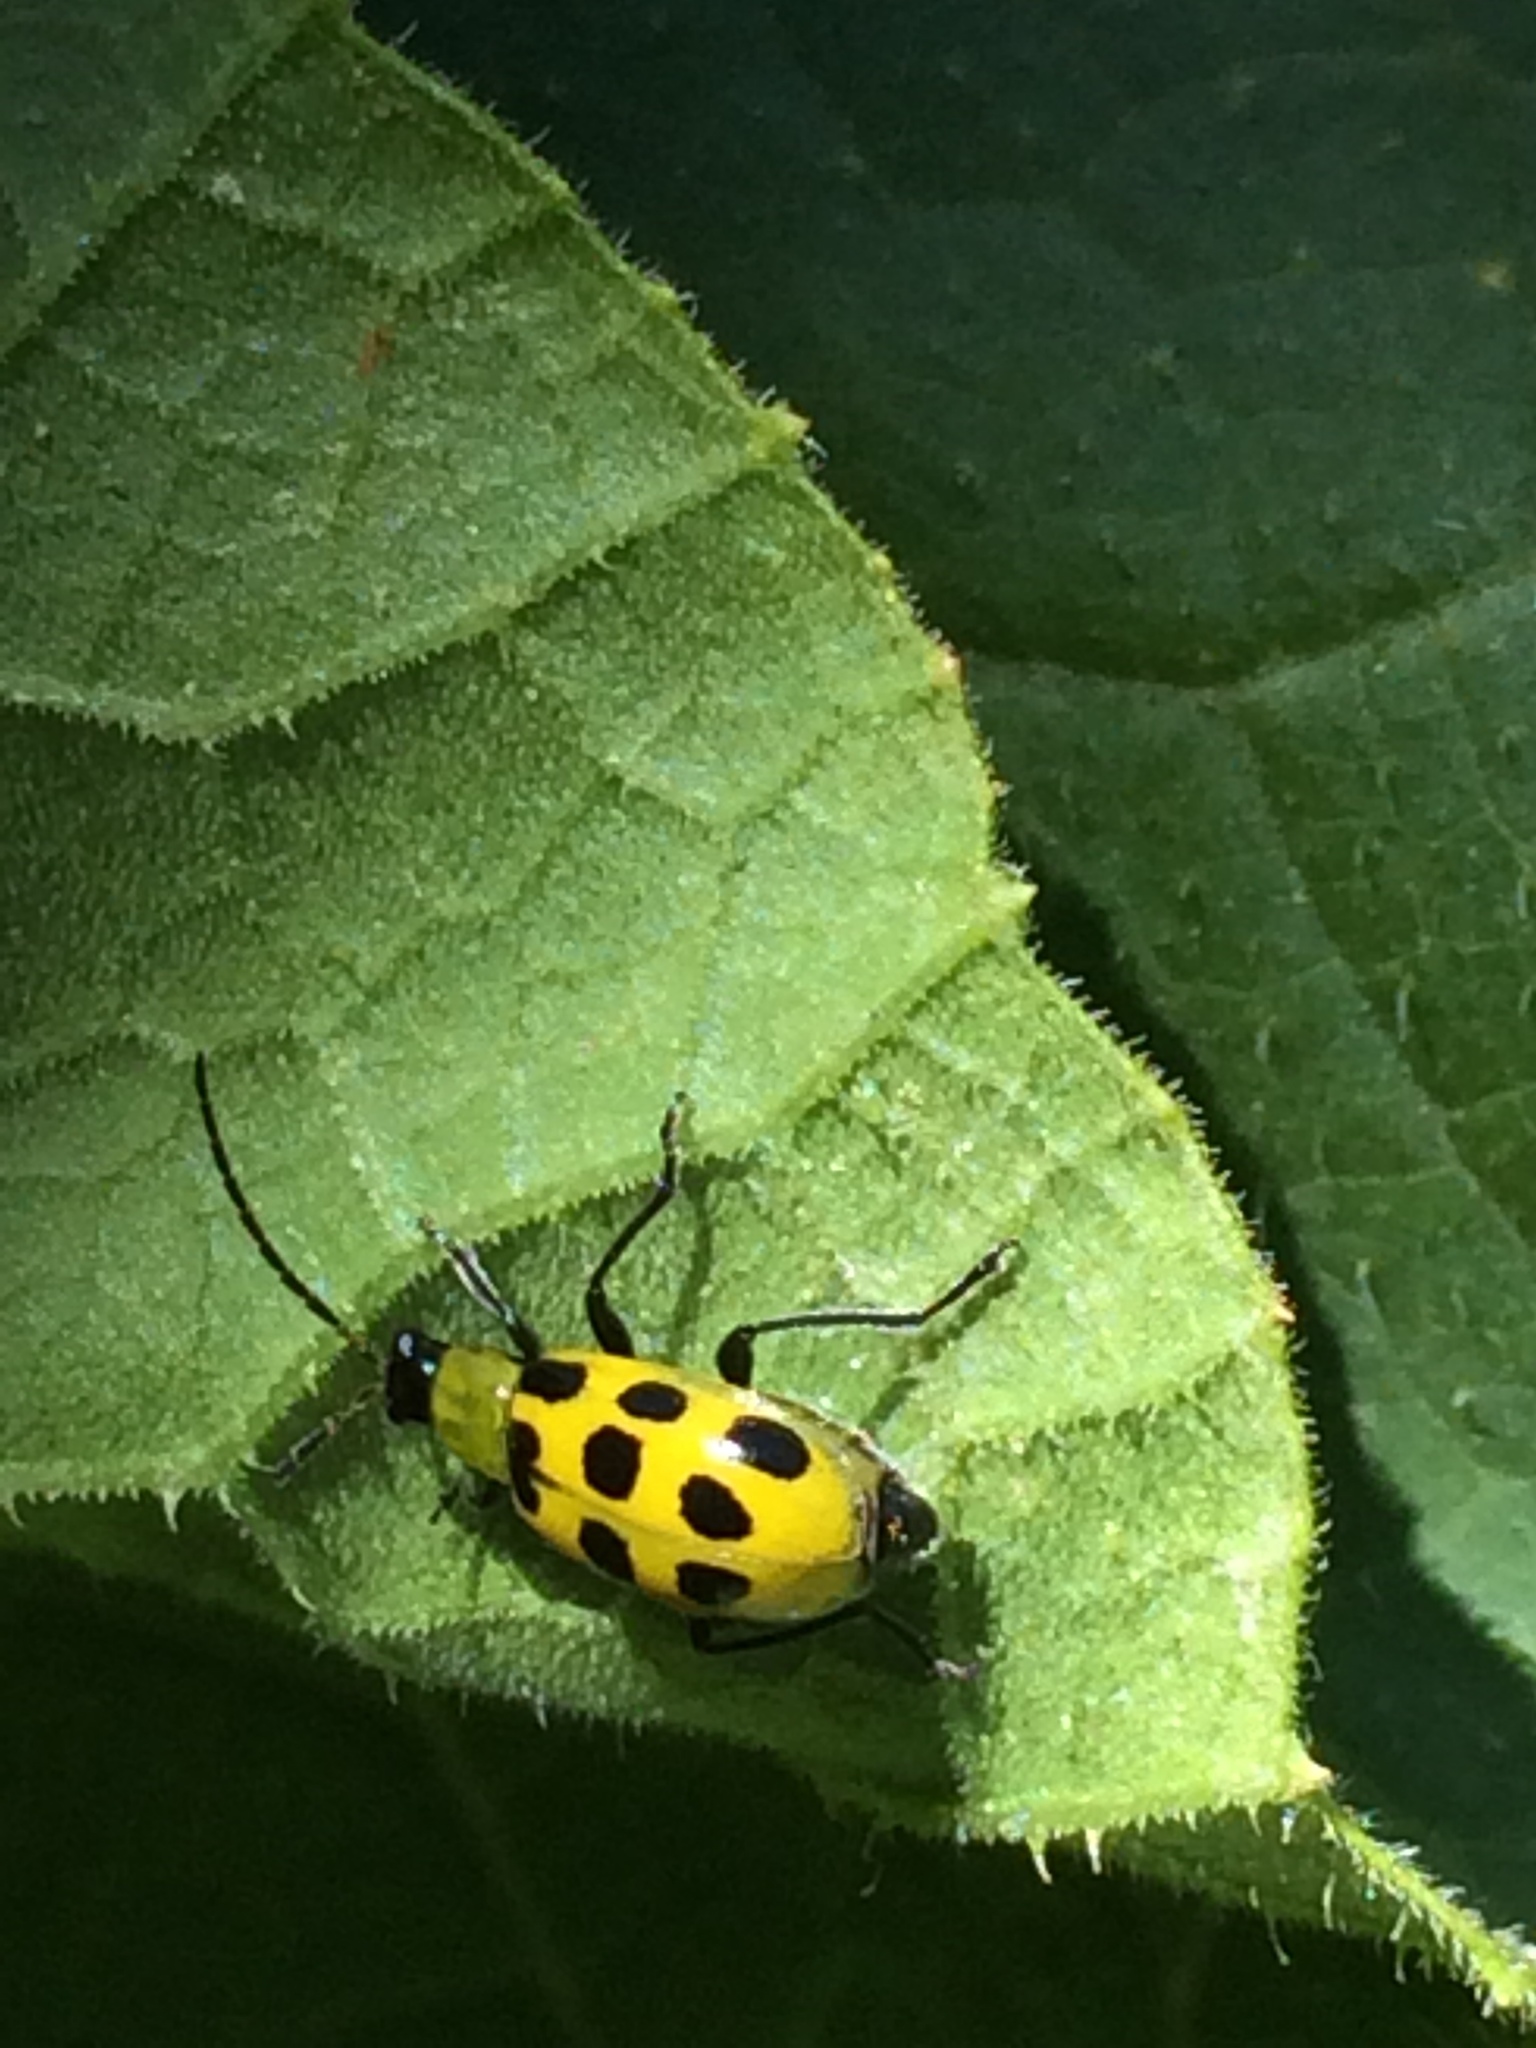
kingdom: Animalia
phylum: Arthropoda
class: Insecta
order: Coleoptera
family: Chrysomelidae
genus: Diabrotica
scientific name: Diabrotica undecimpunctata
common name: Spotted cucumber beetle
